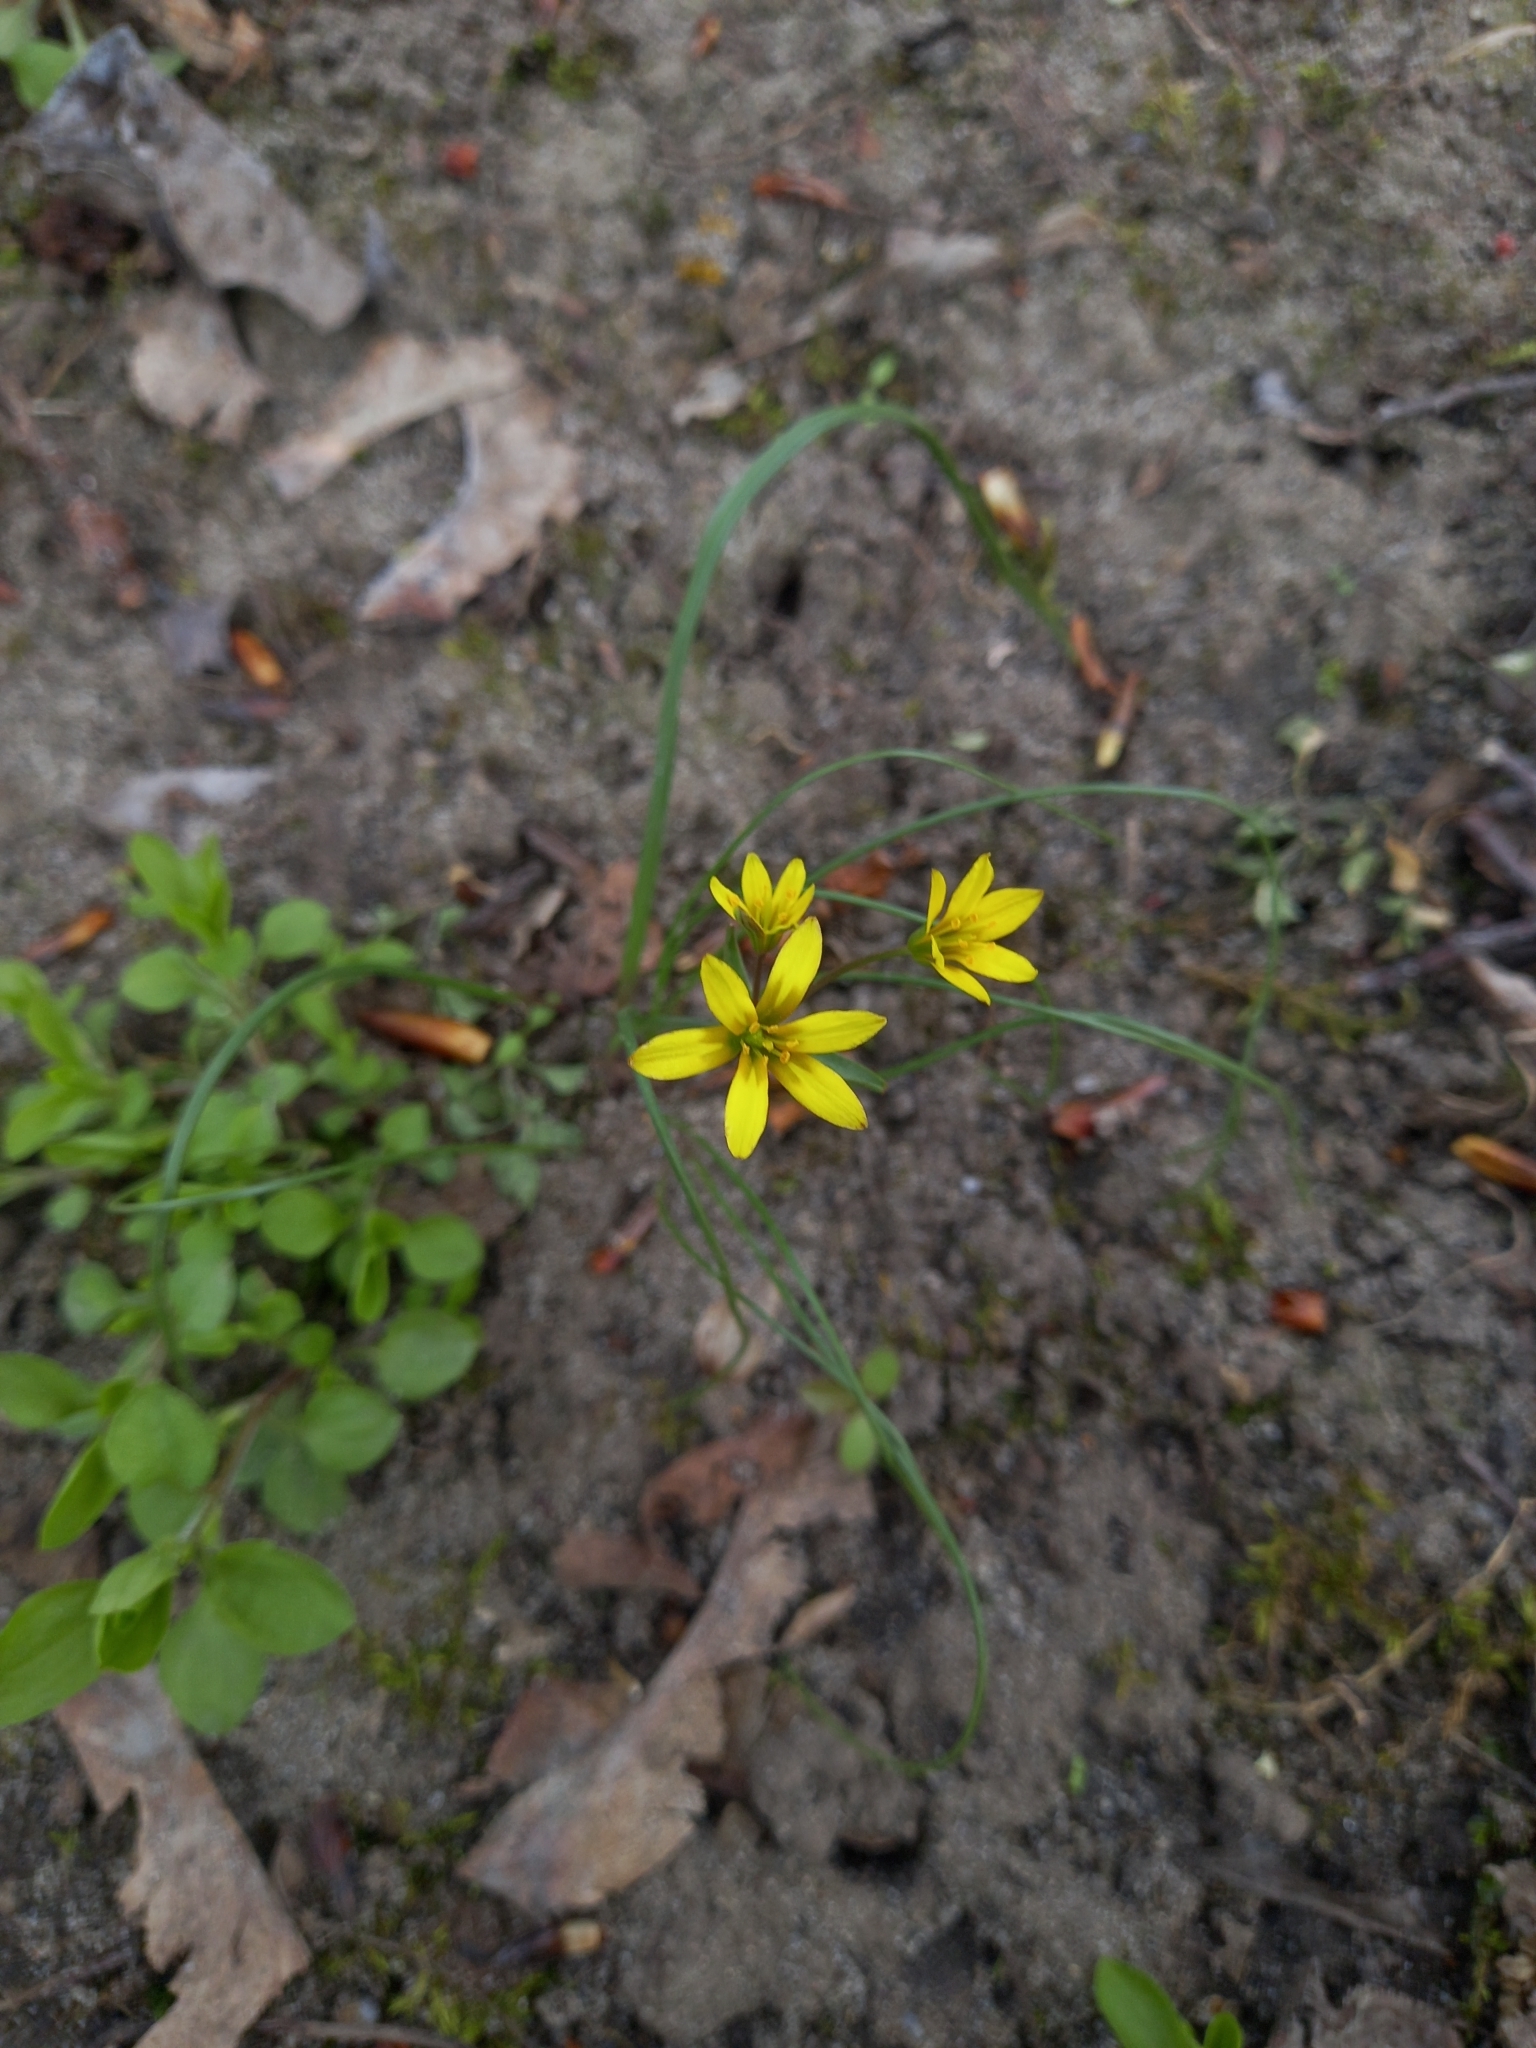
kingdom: Plantae
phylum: Tracheophyta
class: Liliopsida
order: Liliales
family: Liliaceae
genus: Gagea
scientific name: Gagea fragifera
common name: Lily
